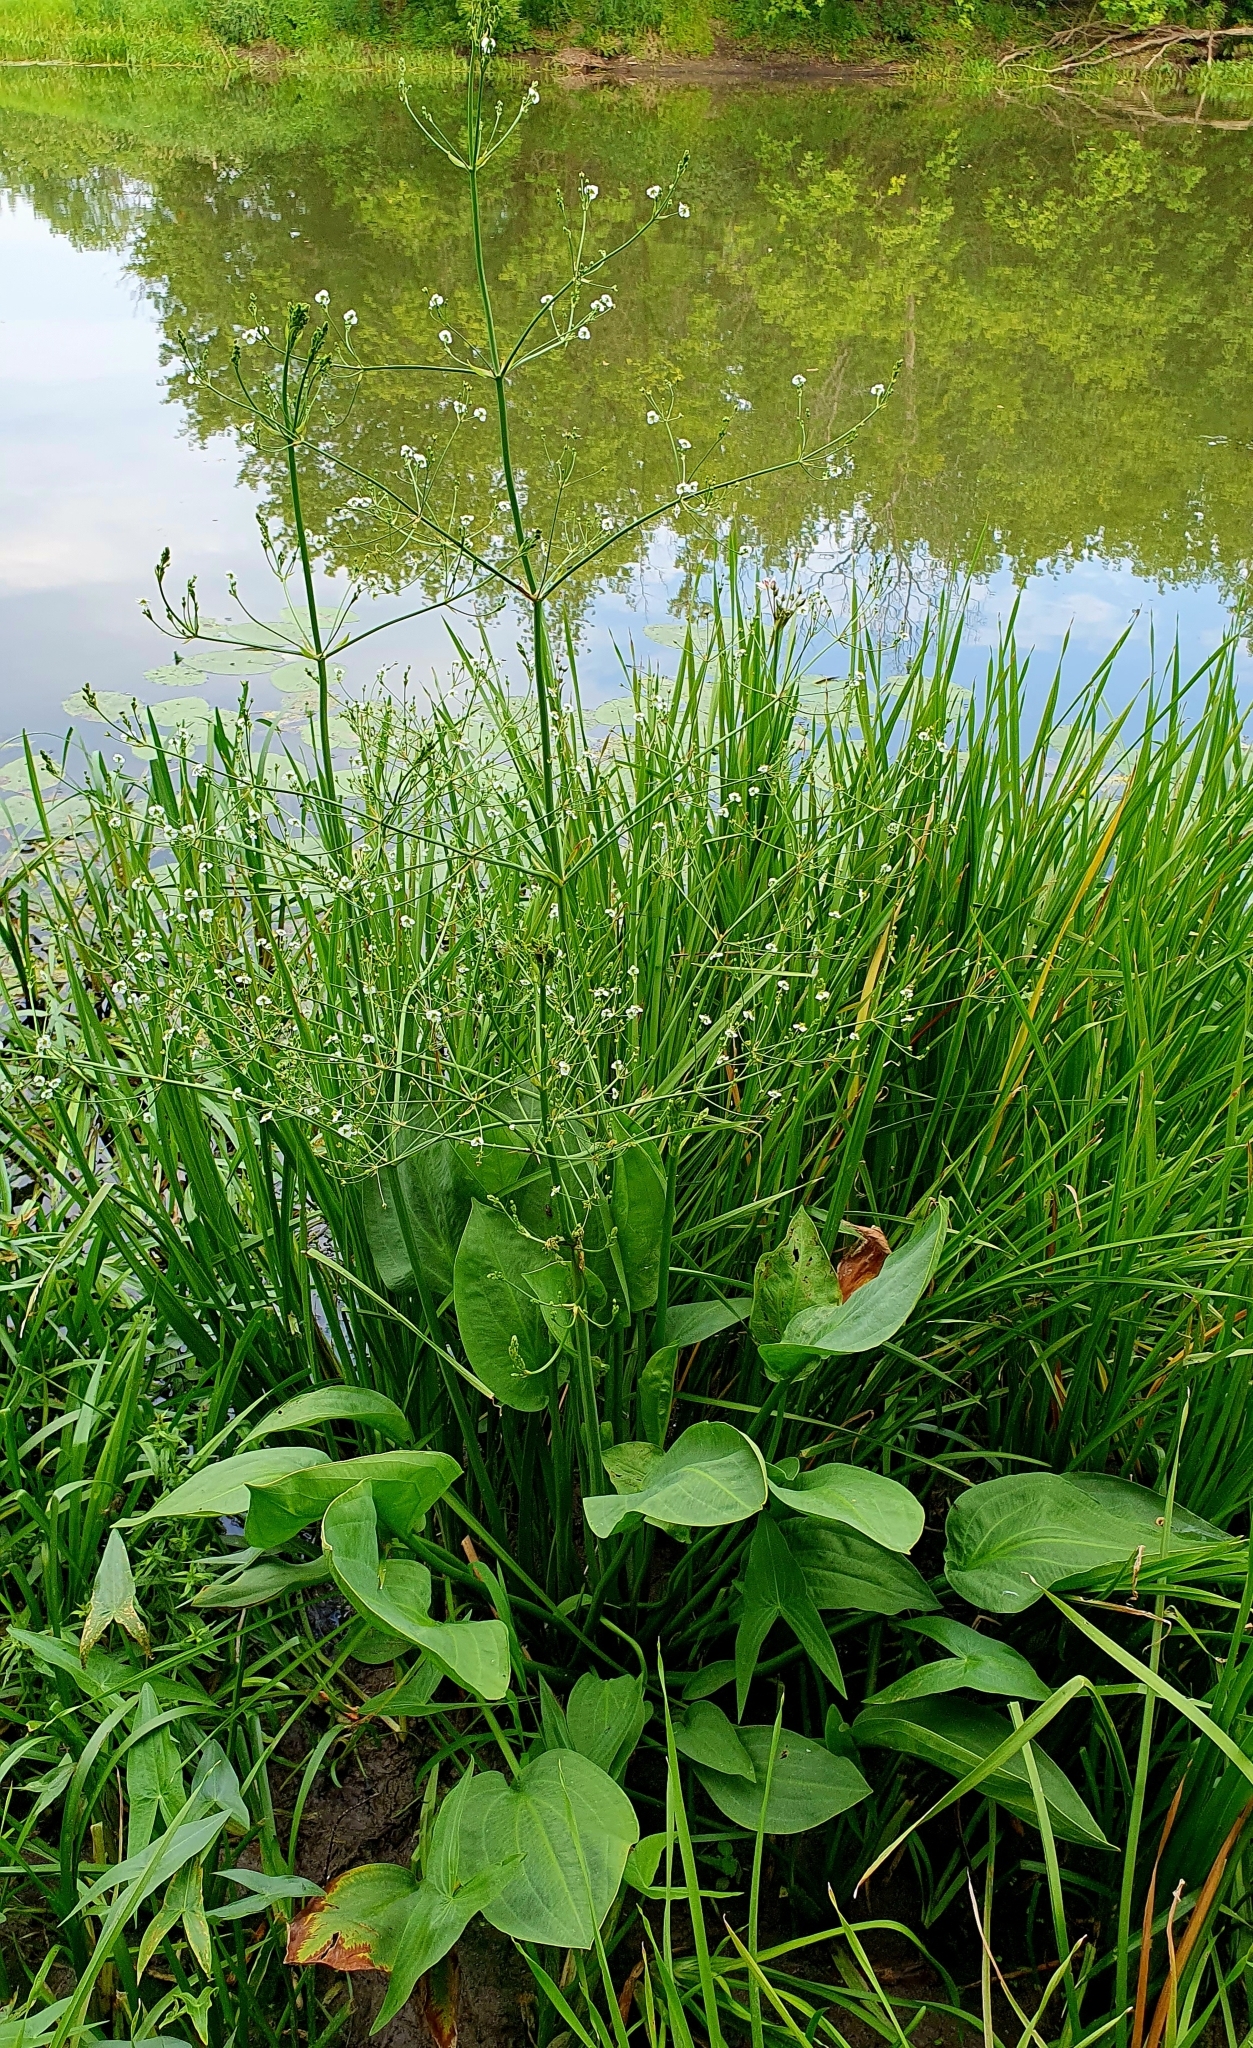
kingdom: Plantae
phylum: Tracheophyta
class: Liliopsida
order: Alismatales
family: Alismataceae
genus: Alisma
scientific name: Alisma plantago-aquatica
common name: Water-plantain
